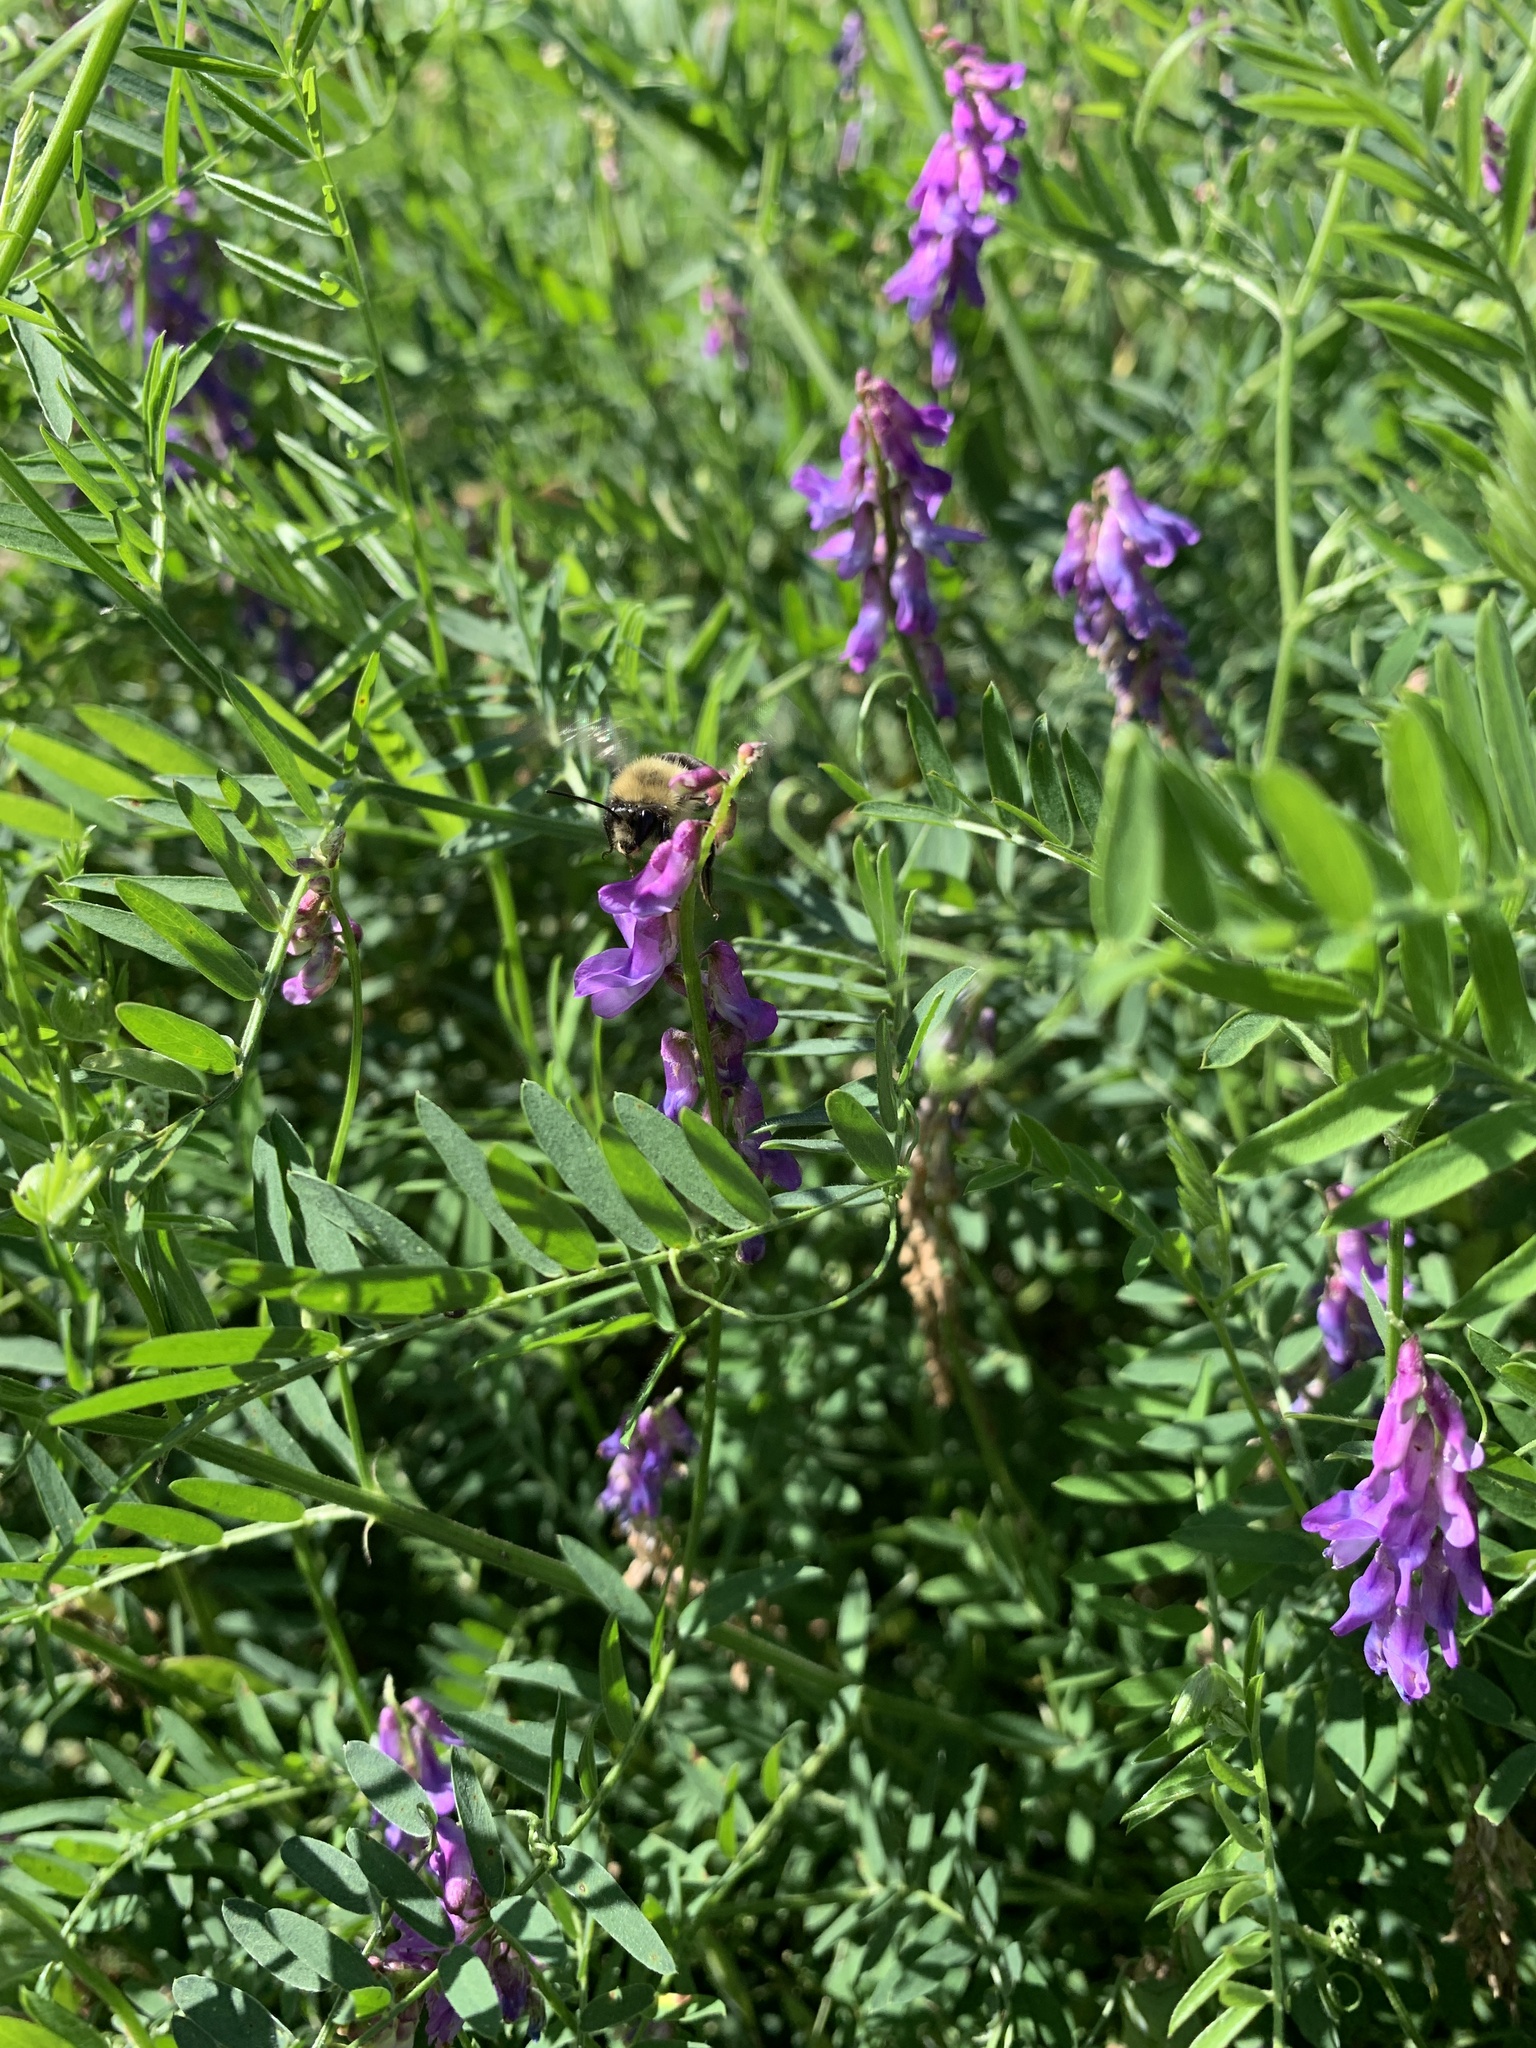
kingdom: Plantae
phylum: Tracheophyta
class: Magnoliopsida
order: Fabales
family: Fabaceae
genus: Vicia
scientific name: Vicia cracca
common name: Bird vetch
